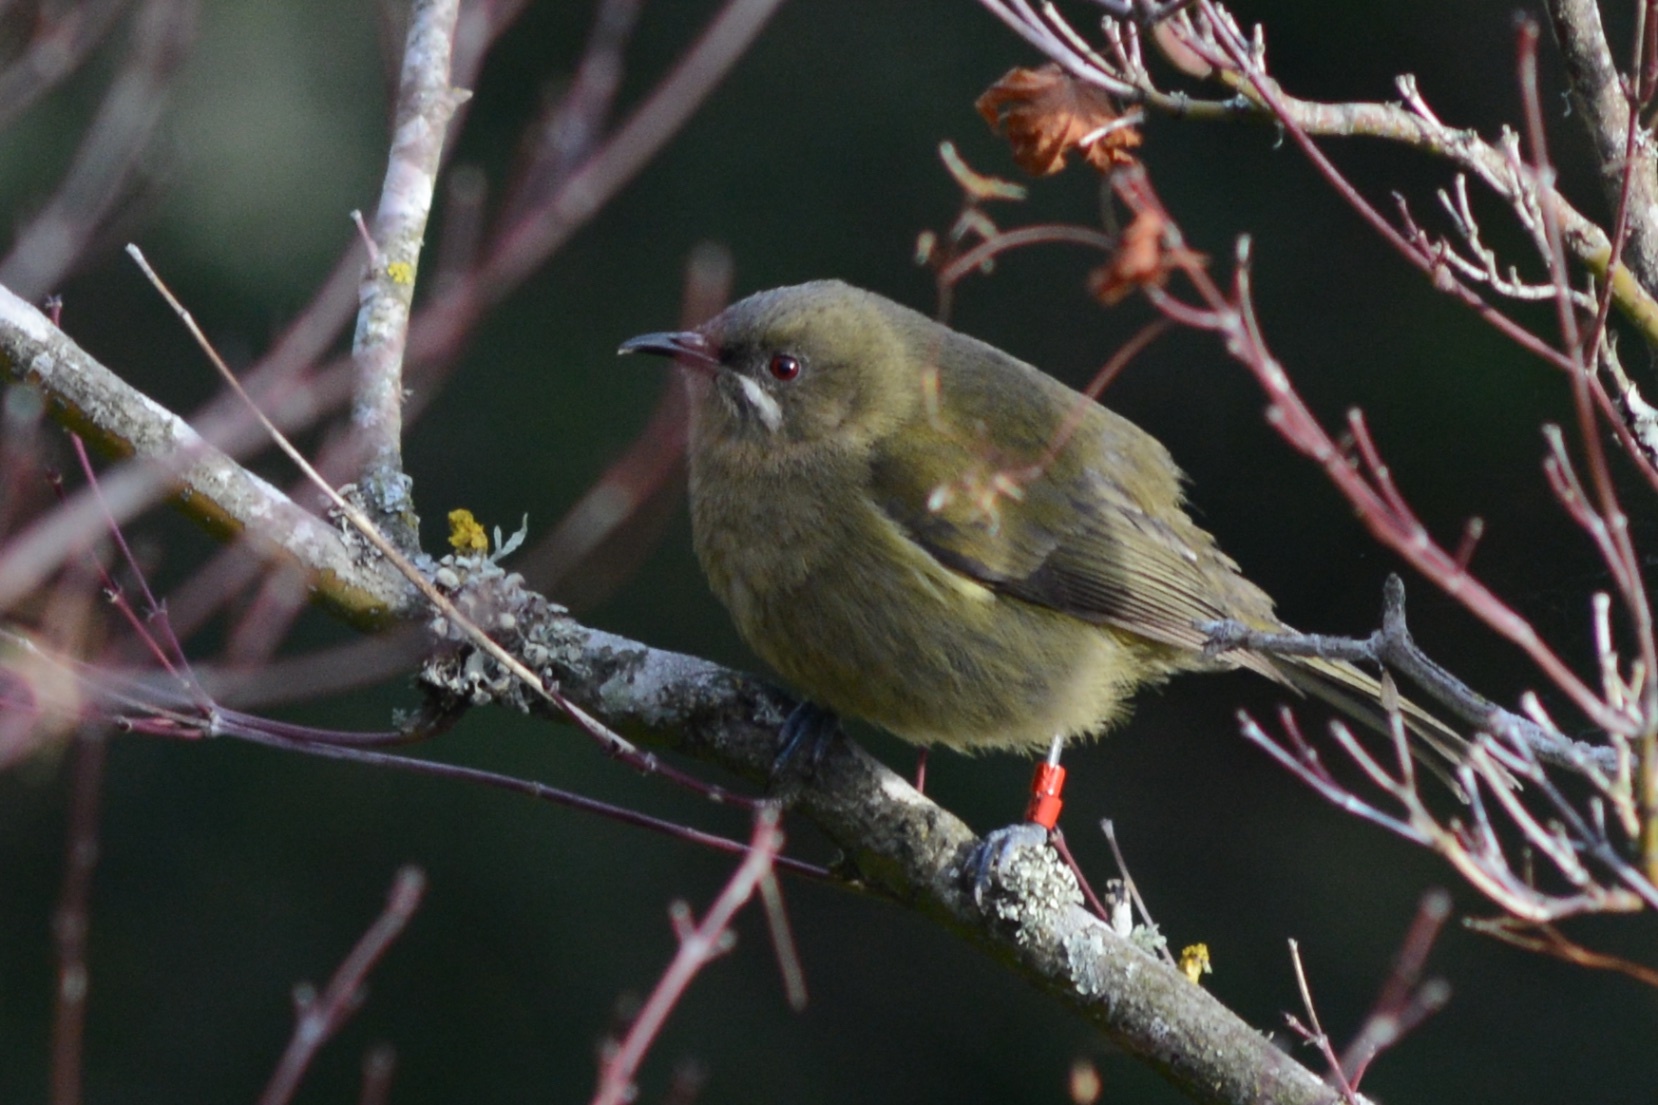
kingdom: Animalia
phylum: Chordata
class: Aves
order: Passeriformes
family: Meliphagidae
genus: Anthornis
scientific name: Anthornis melanura
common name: New zealand bellbird
